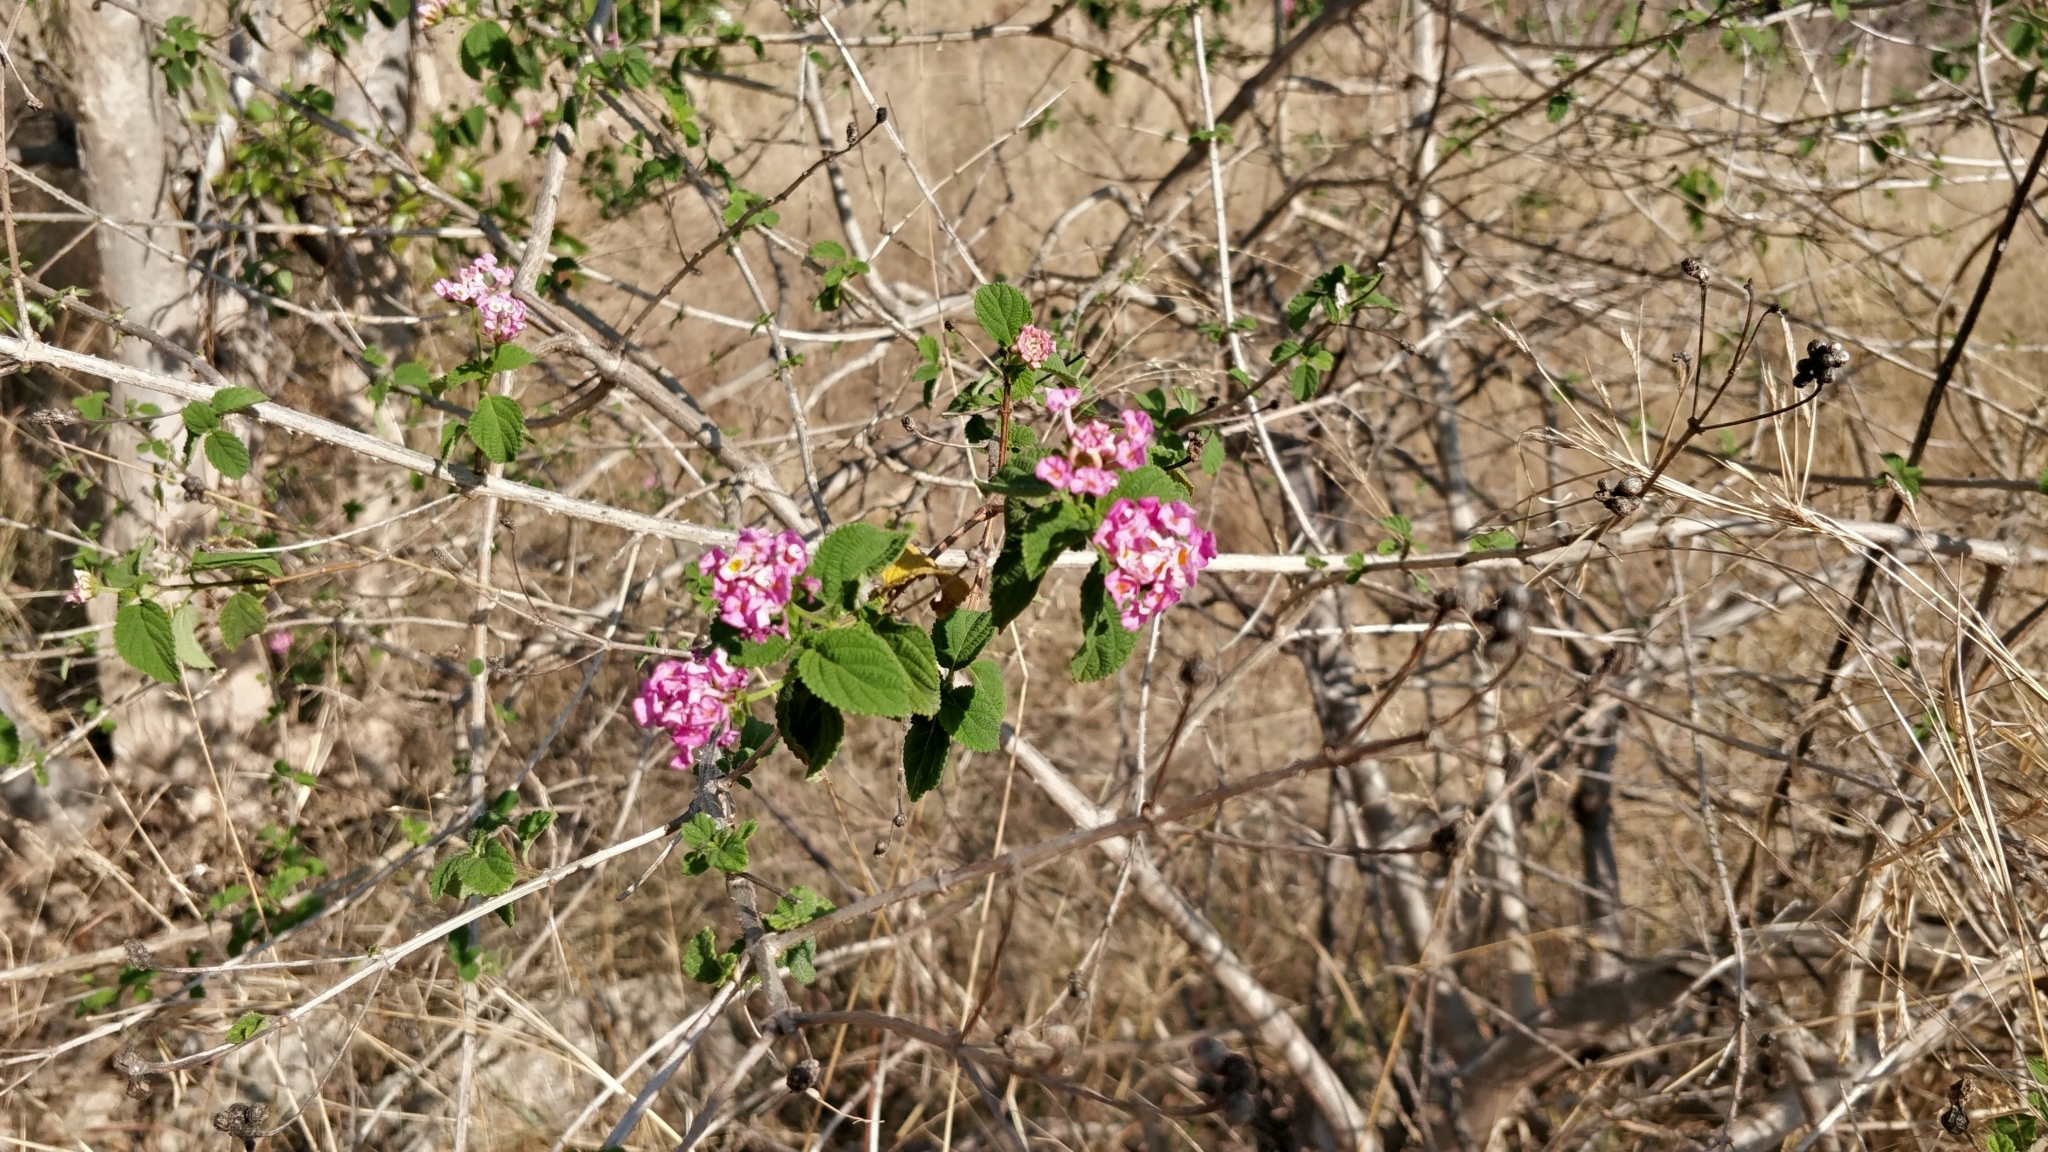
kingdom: Plantae
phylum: Tracheophyta
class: Magnoliopsida
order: Lamiales
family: Verbenaceae
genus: Lantana
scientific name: Lantana camara
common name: Lantana
